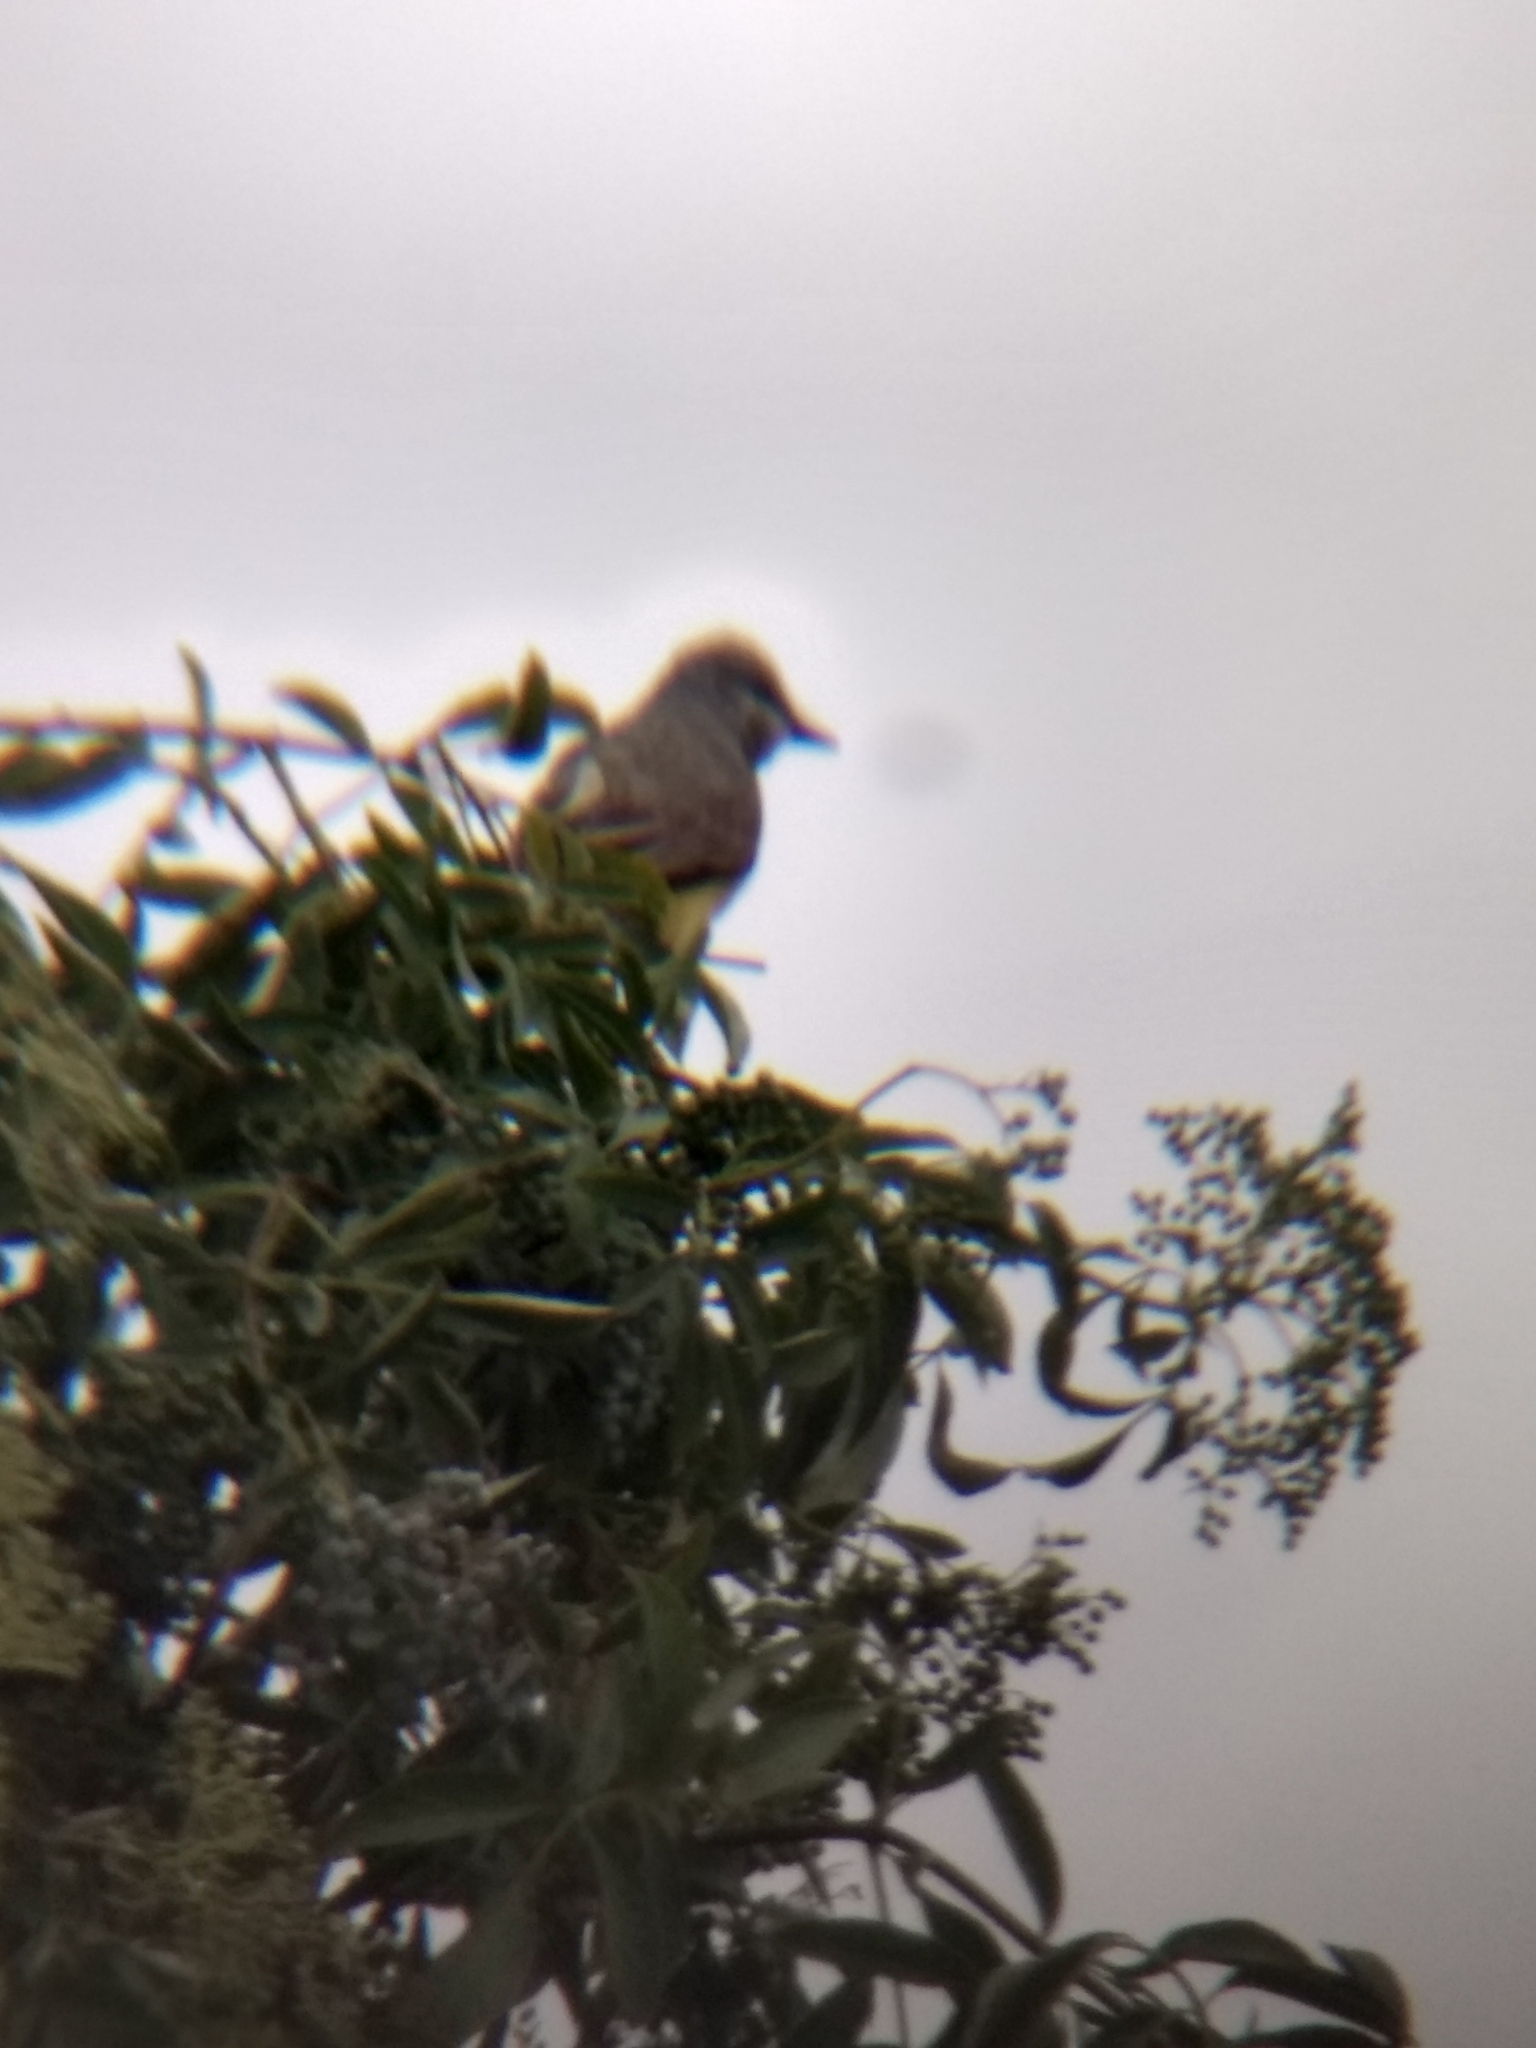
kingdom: Animalia
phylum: Chordata
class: Aves
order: Passeriformes
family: Tyrannidae
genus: Tyrannus
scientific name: Tyrannus
